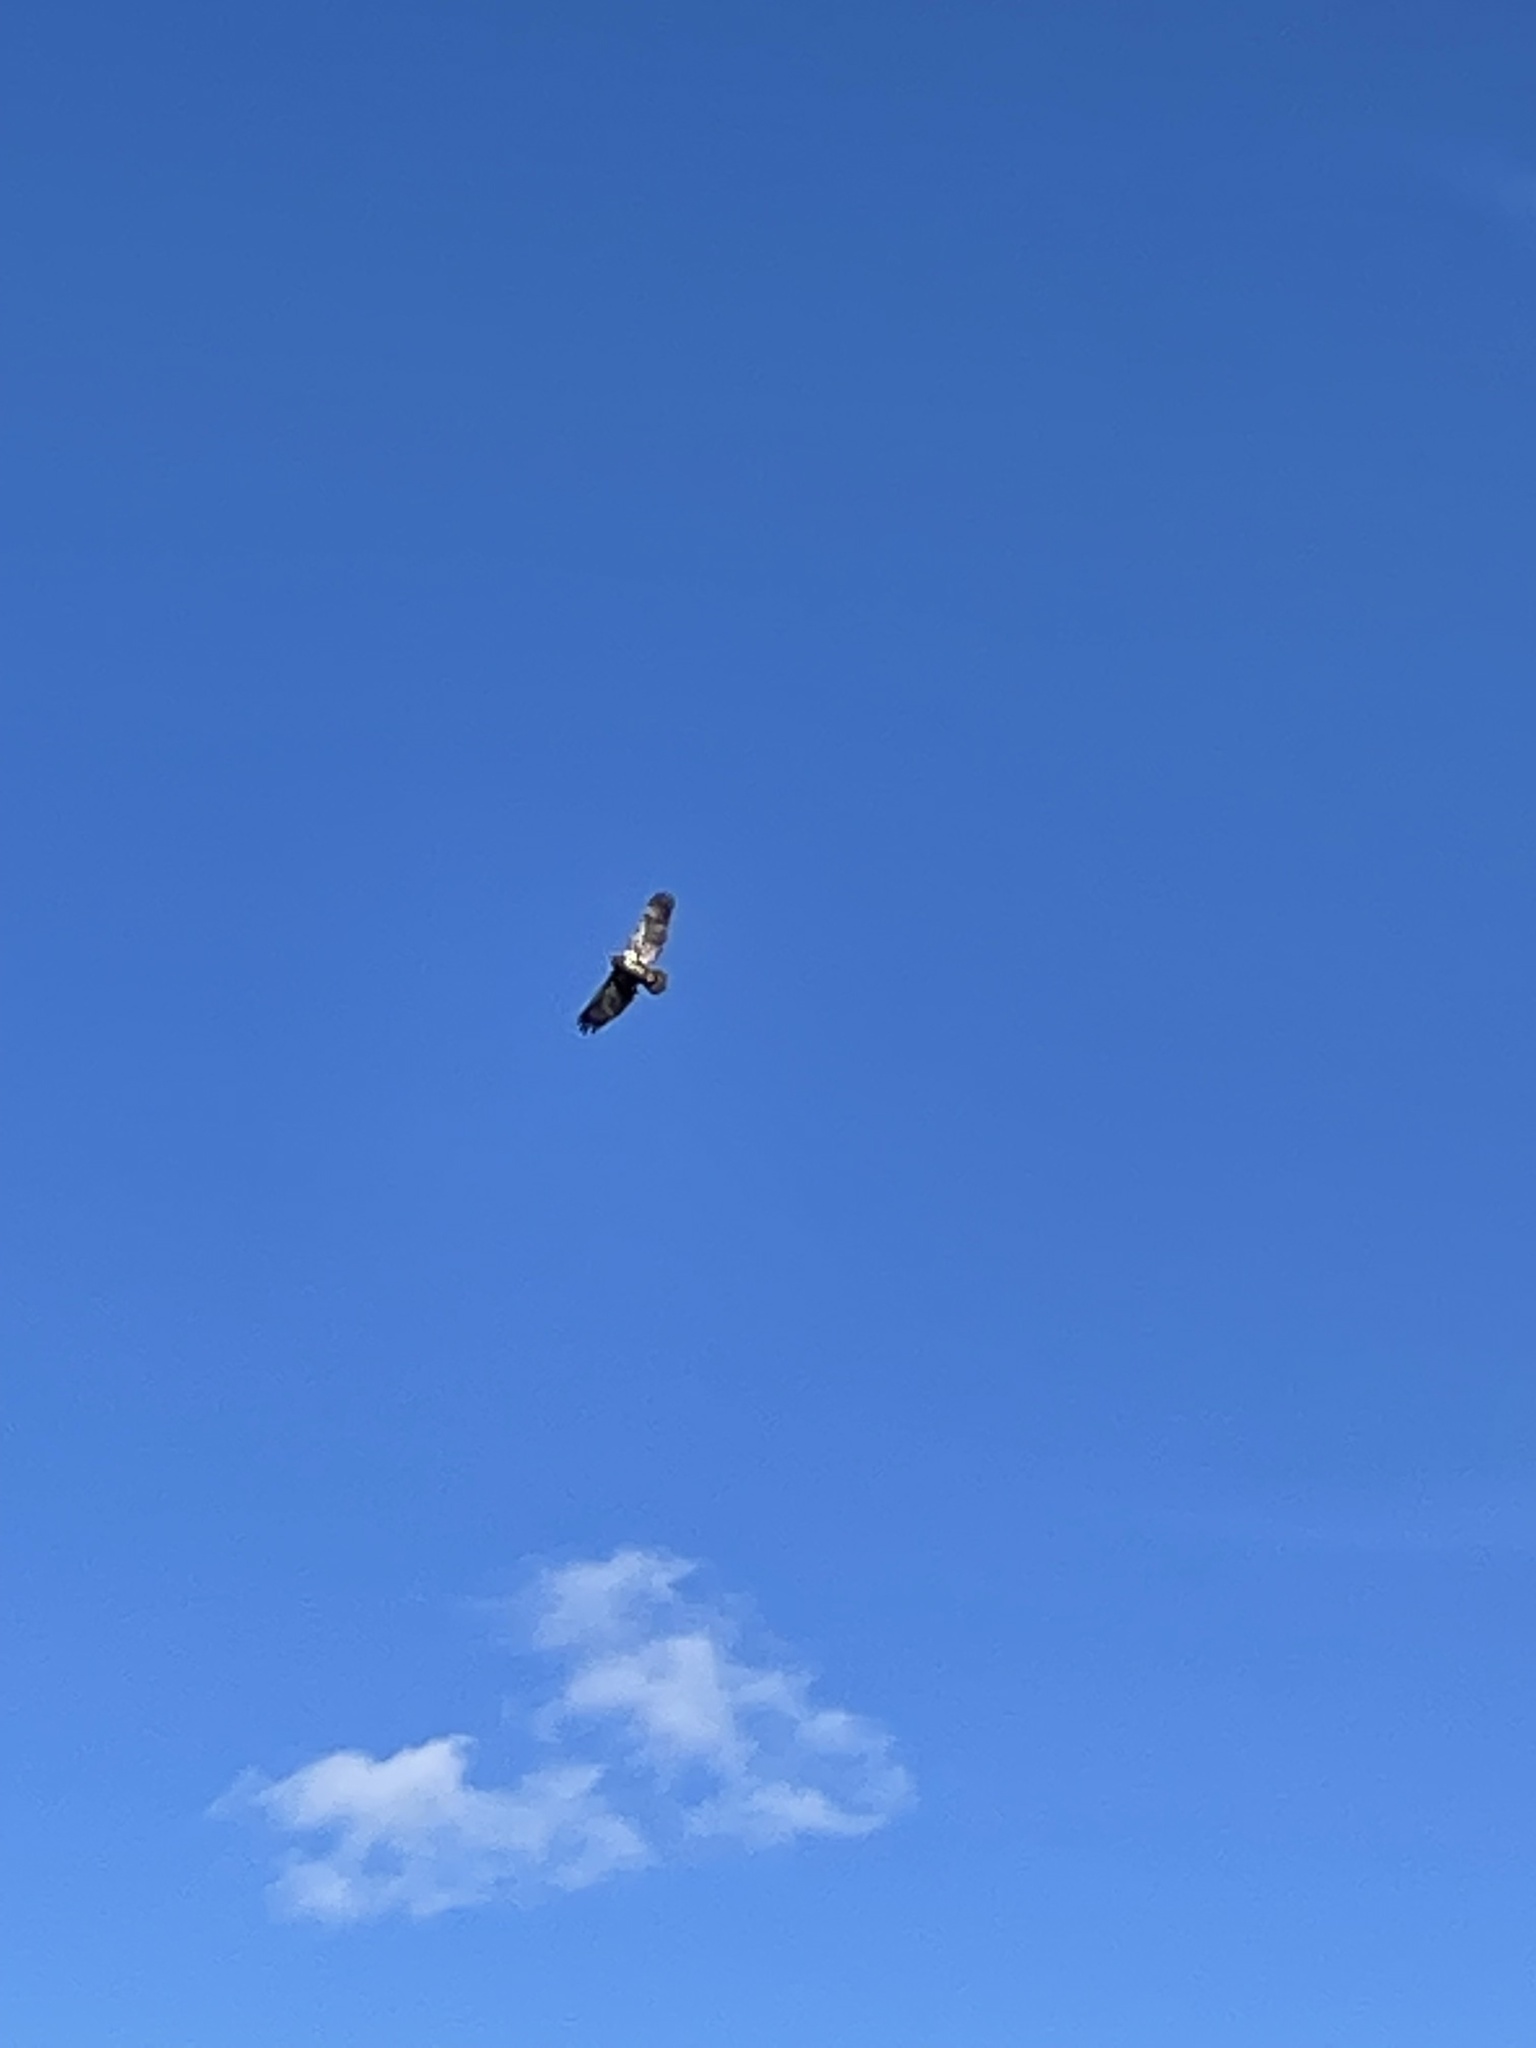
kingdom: Animalia
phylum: Chordata
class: Aves
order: Accipitriformes
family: Accipitridae
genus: Haliaeetus
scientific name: Haliaeetus leucocephalus
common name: Bald eagle
